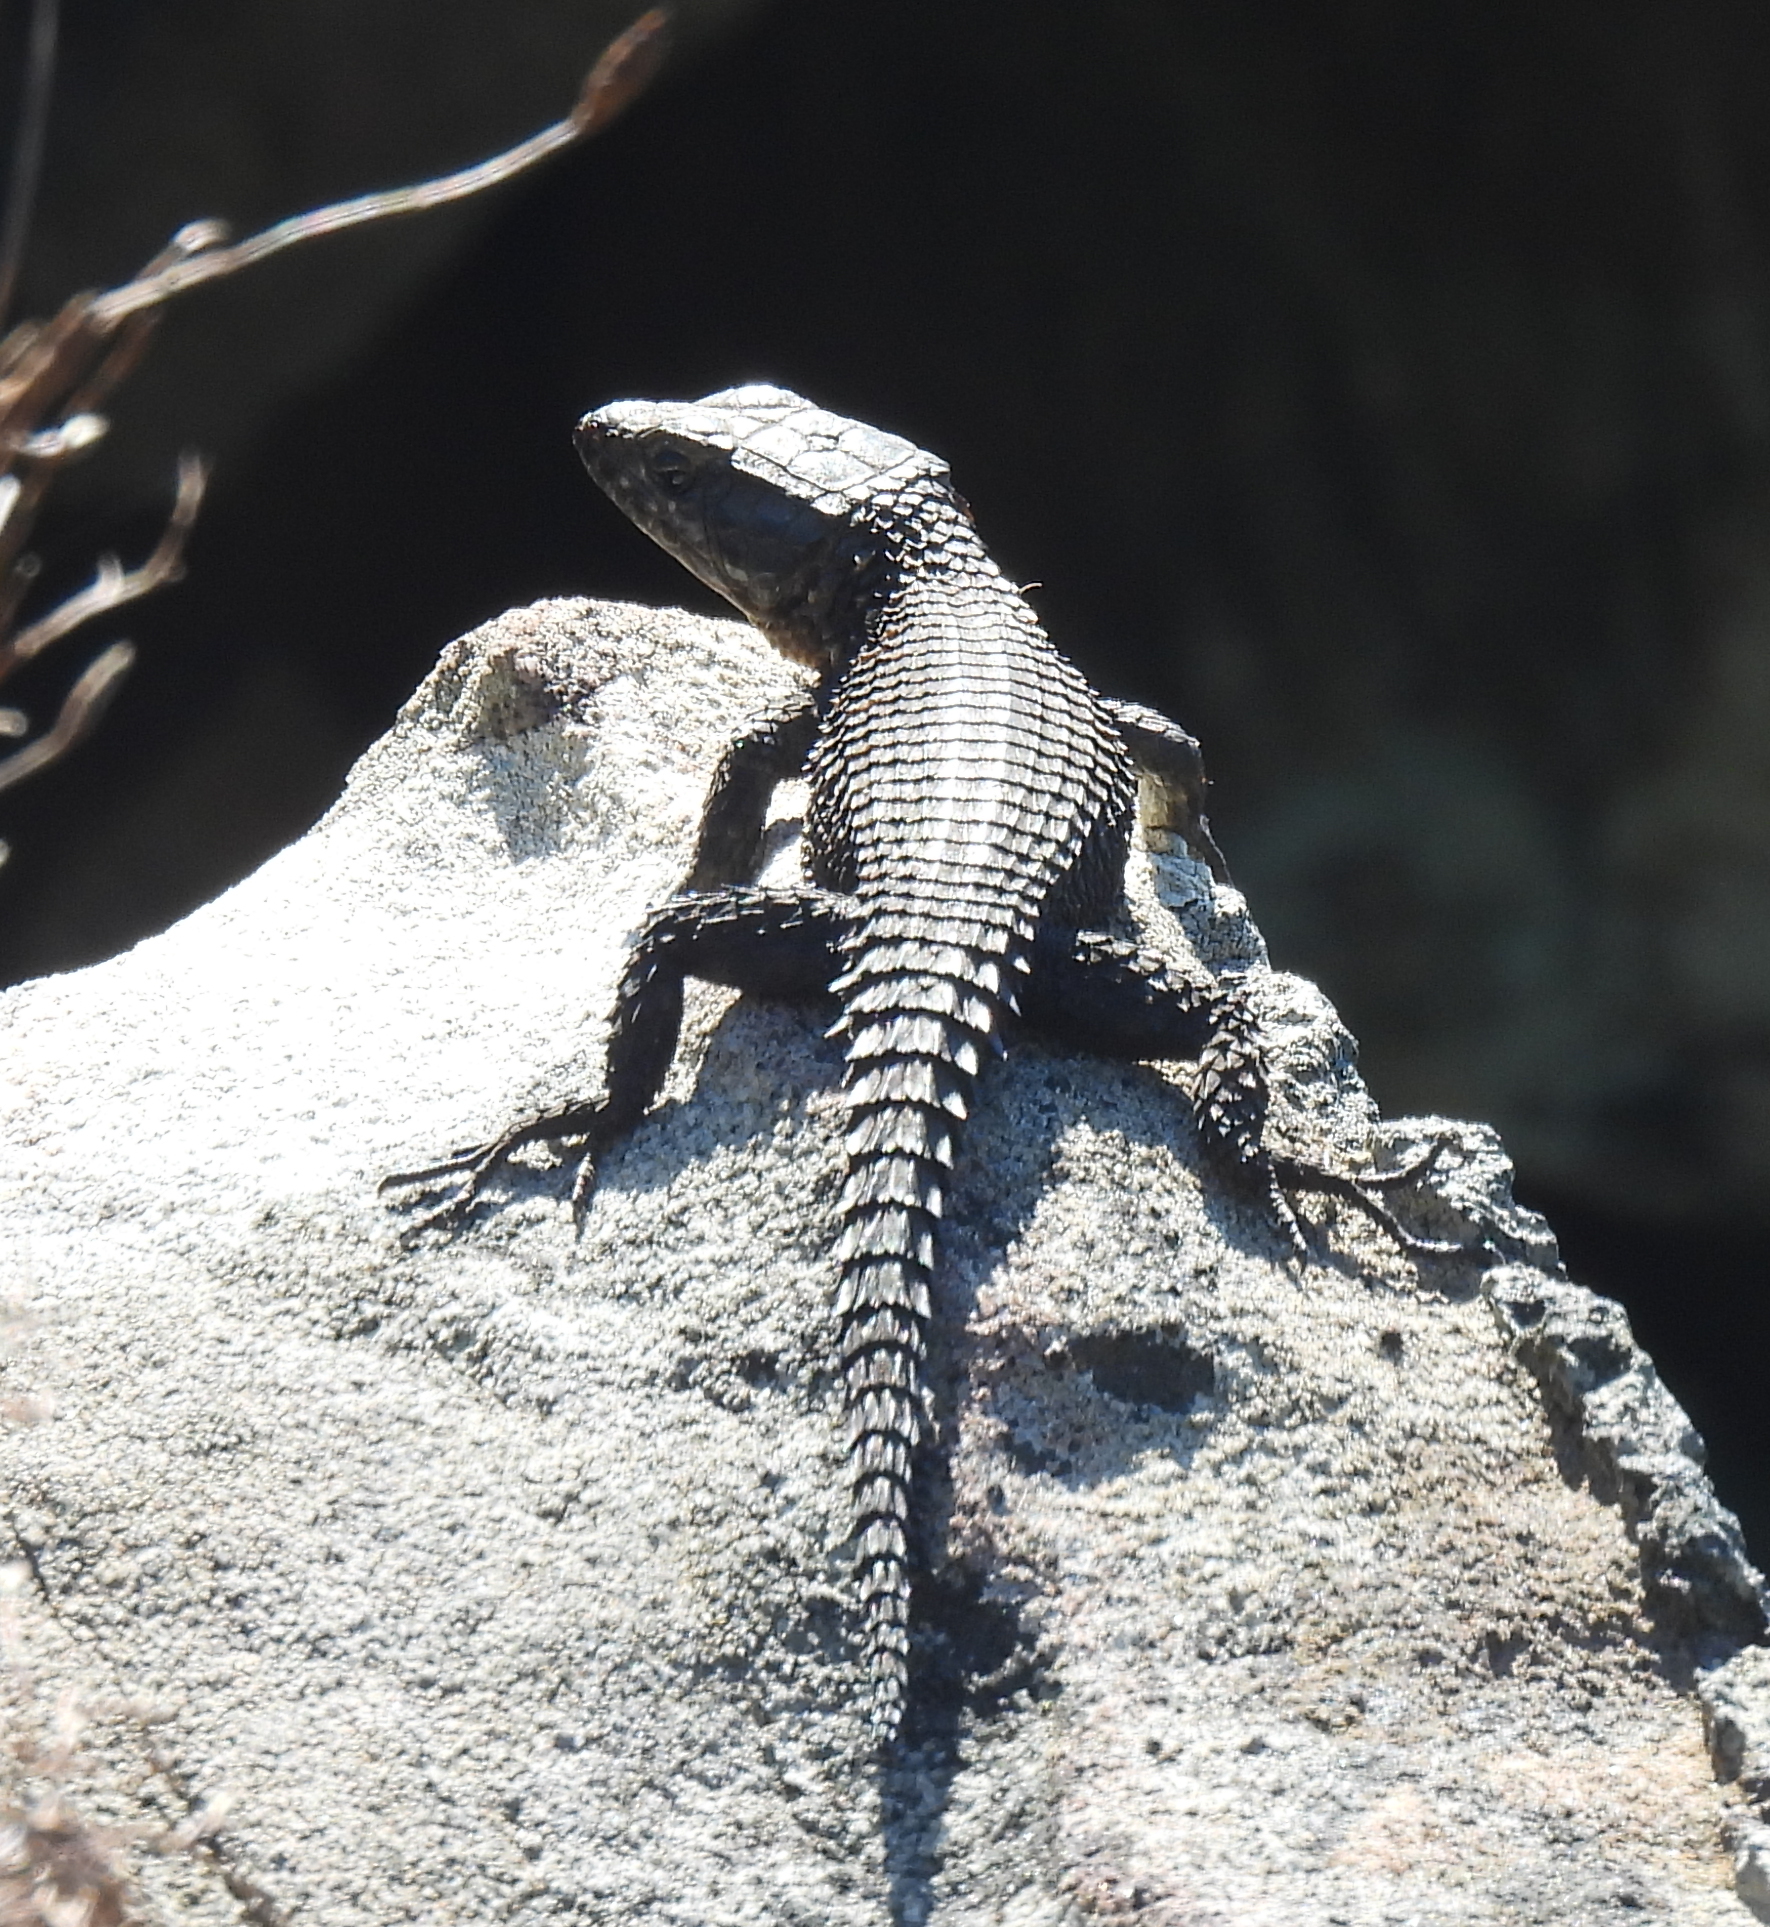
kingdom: Animalia
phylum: Chordata
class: Squamata
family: Cordylidae
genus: Cordylus
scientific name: Cordylus niger
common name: Black girdled lizard
